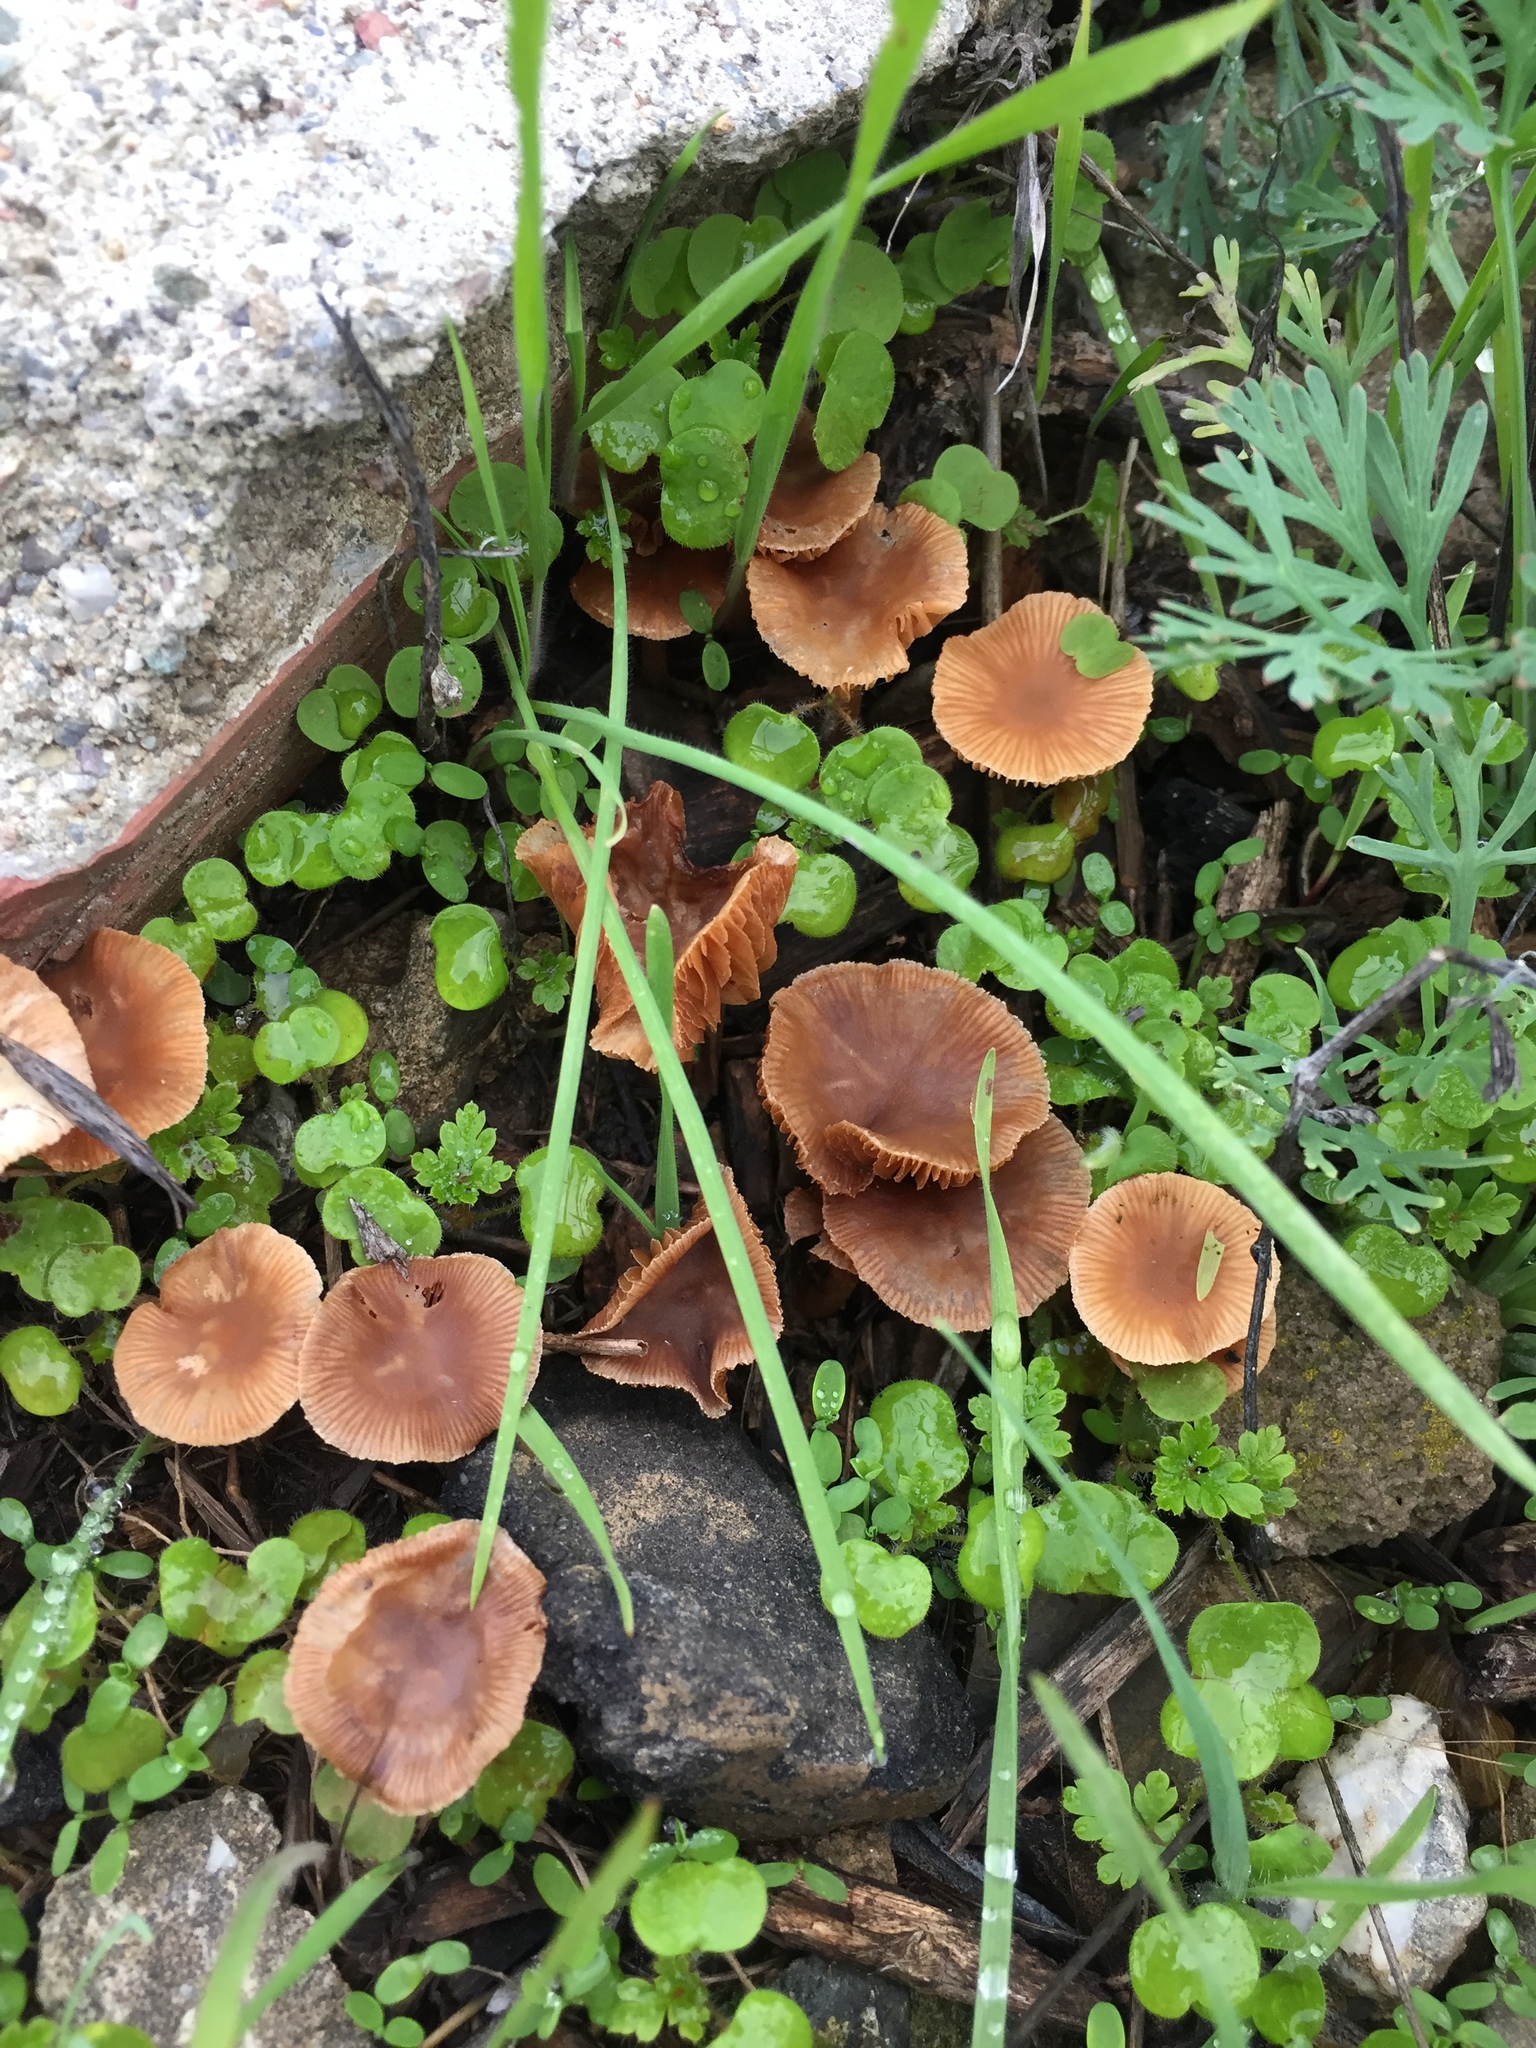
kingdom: Fungi
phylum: Basidiomycota
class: Agaricomycetes
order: Agaricales
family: Tubariaceae
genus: Tubaria
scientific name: Tubaria furfuracea
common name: Scurfy twiglet
